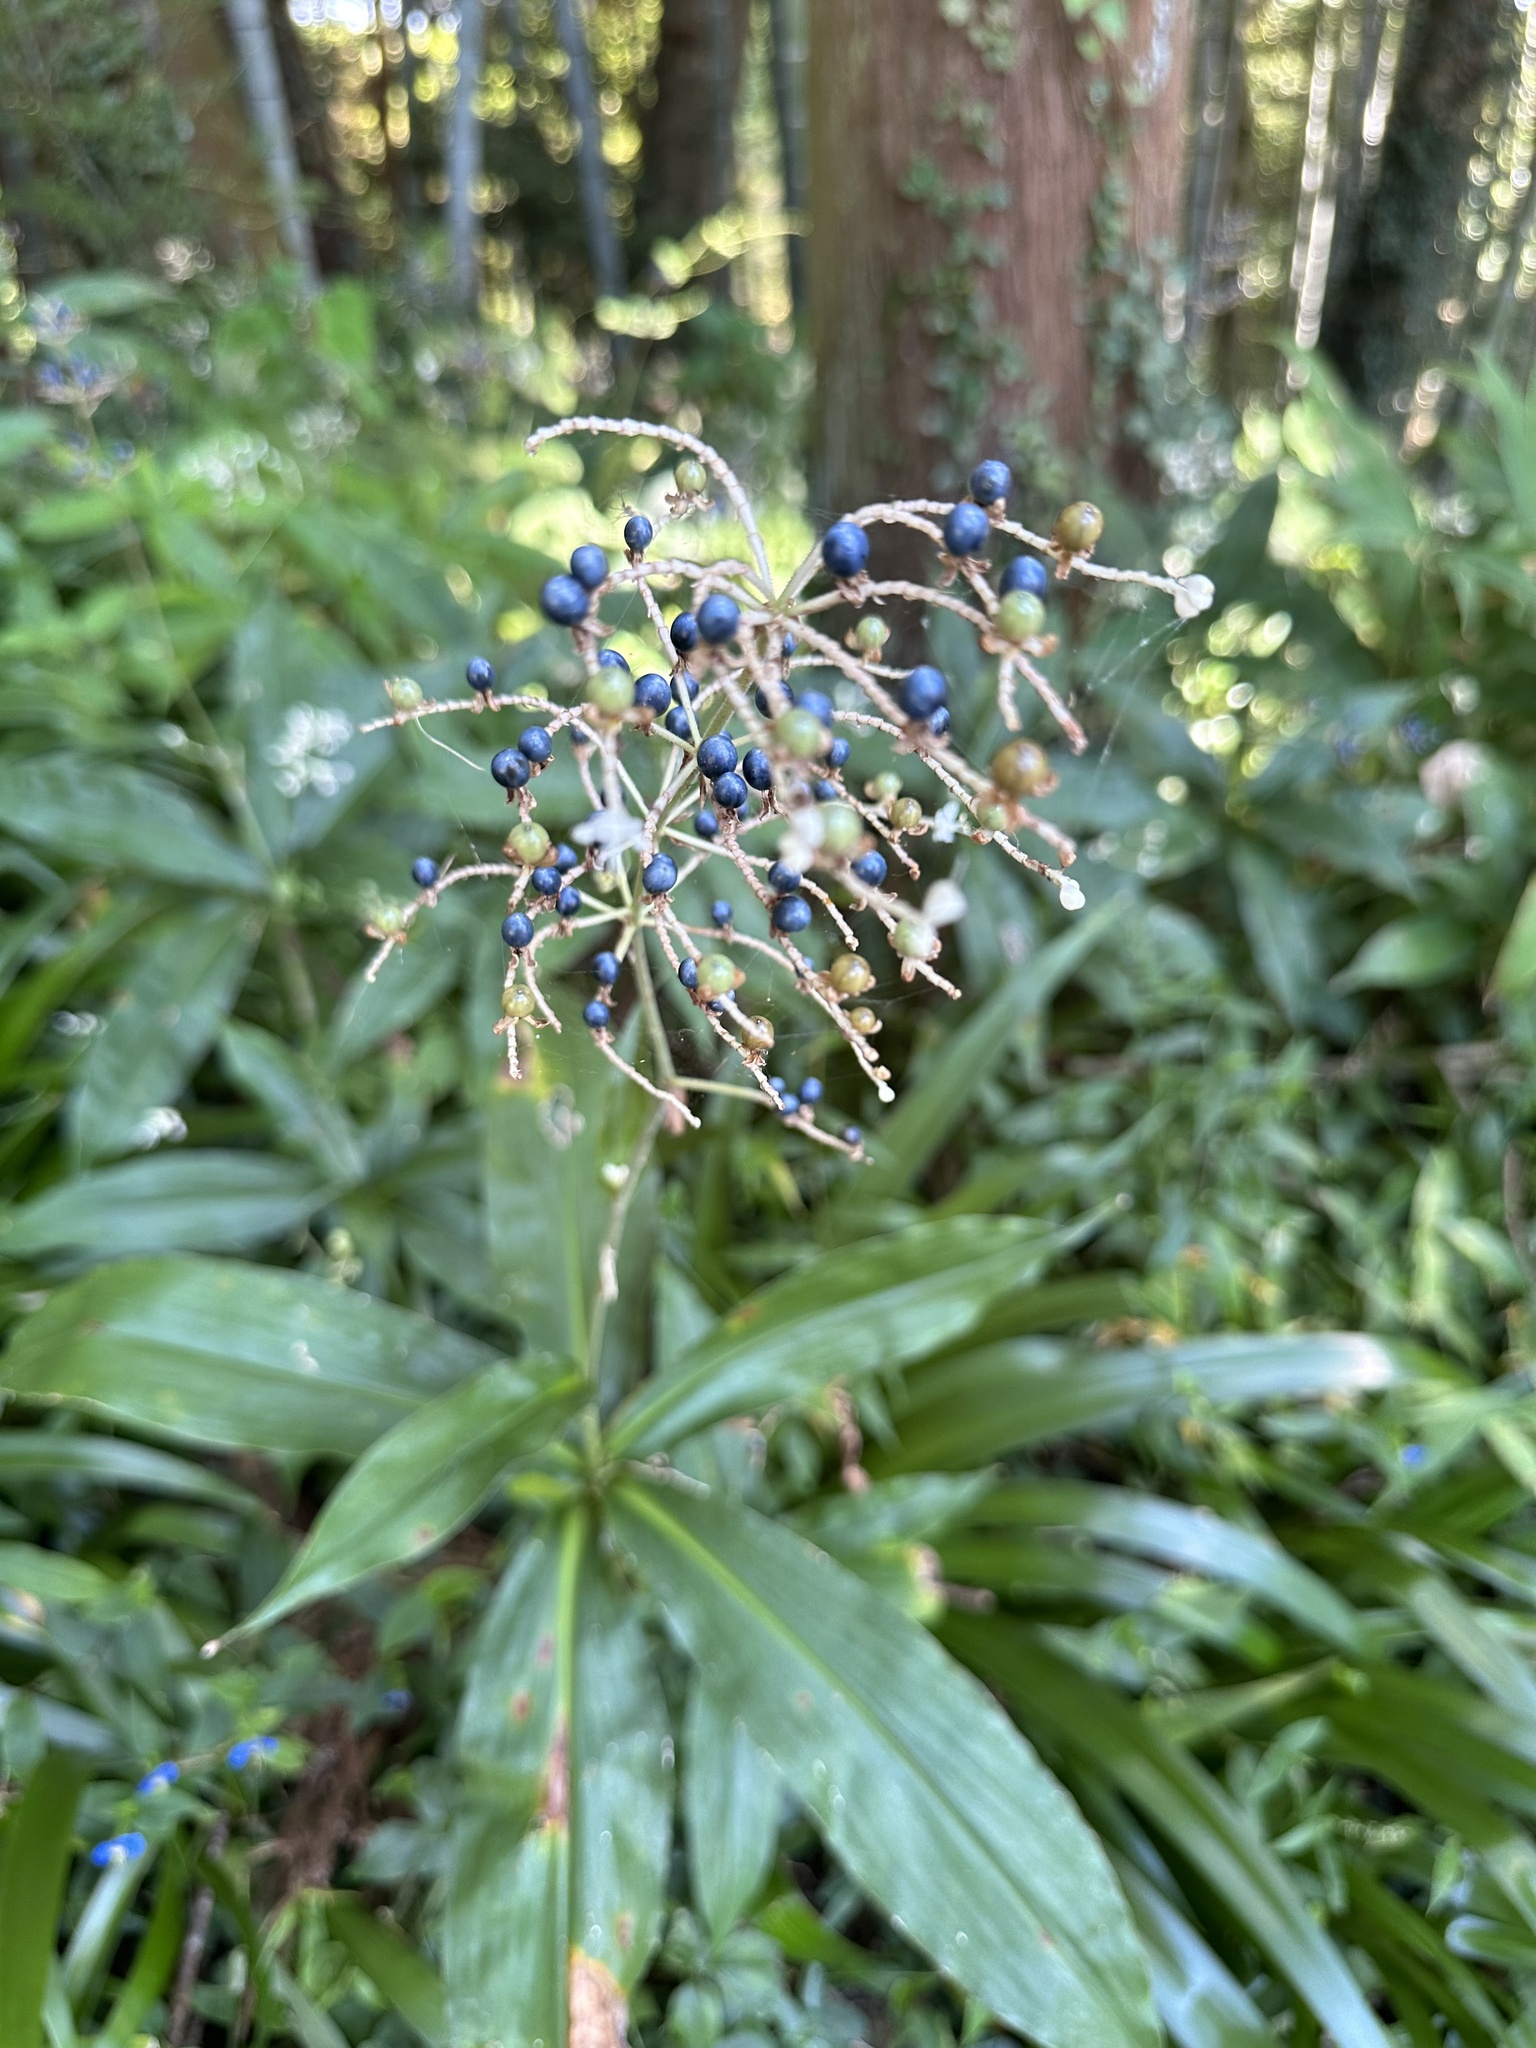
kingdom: Plantae
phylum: Tracheophyta
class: Liliopsida
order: Commelinales
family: Commelinaceae
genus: Pollia
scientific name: Pollia japonica
